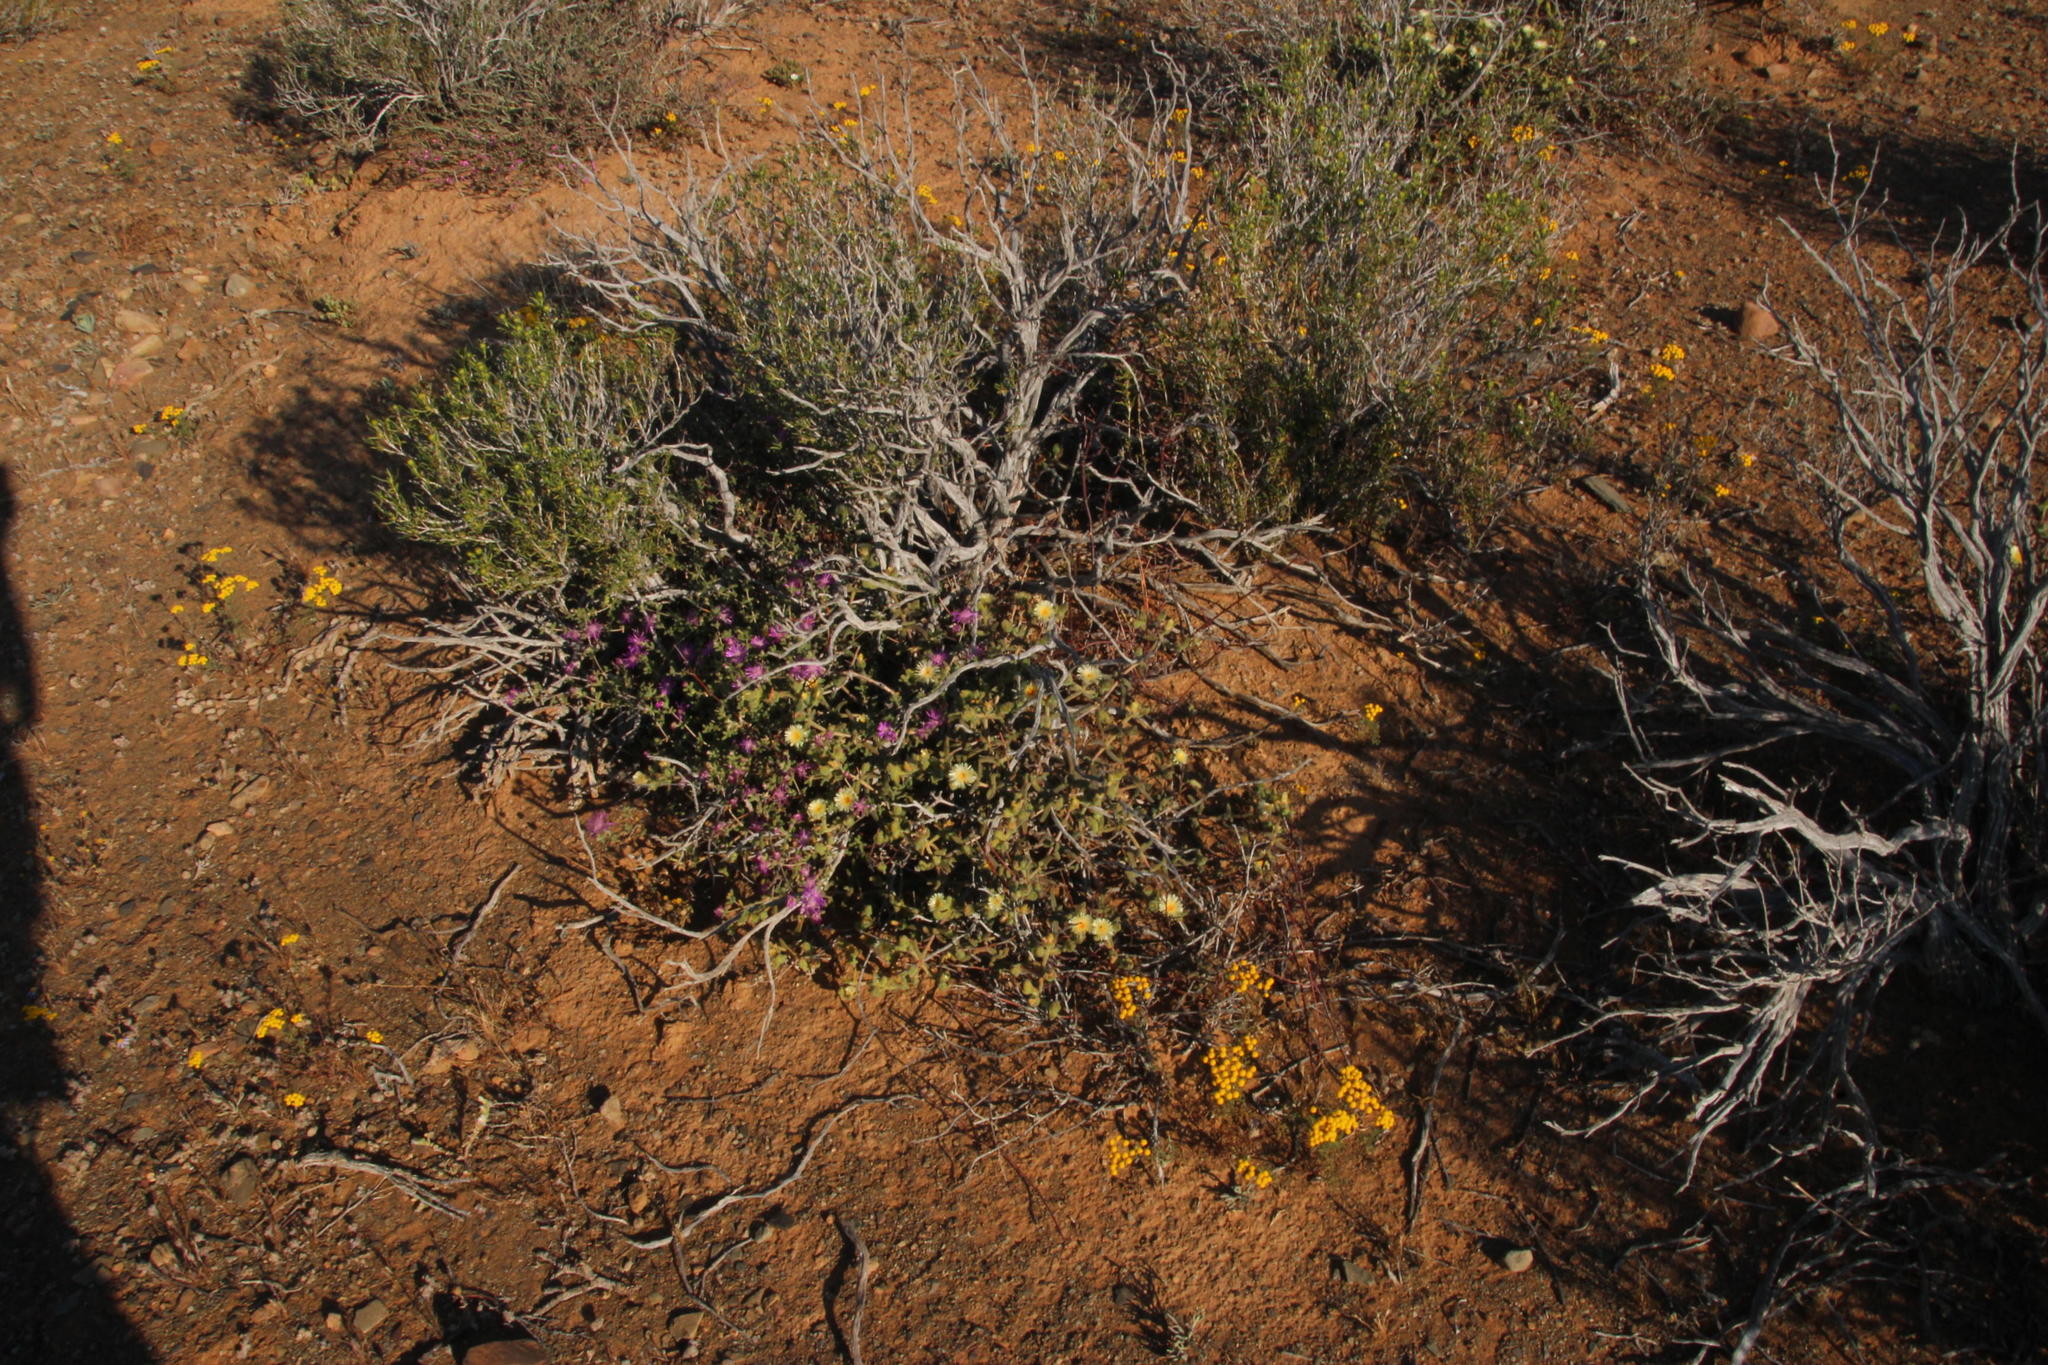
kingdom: Plantae
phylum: Tracheophyta
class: Magnoliopsida
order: Caryophyllales
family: Aizoaceae
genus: Mesembryanthemum
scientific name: Mesembryanthemum nitidum
